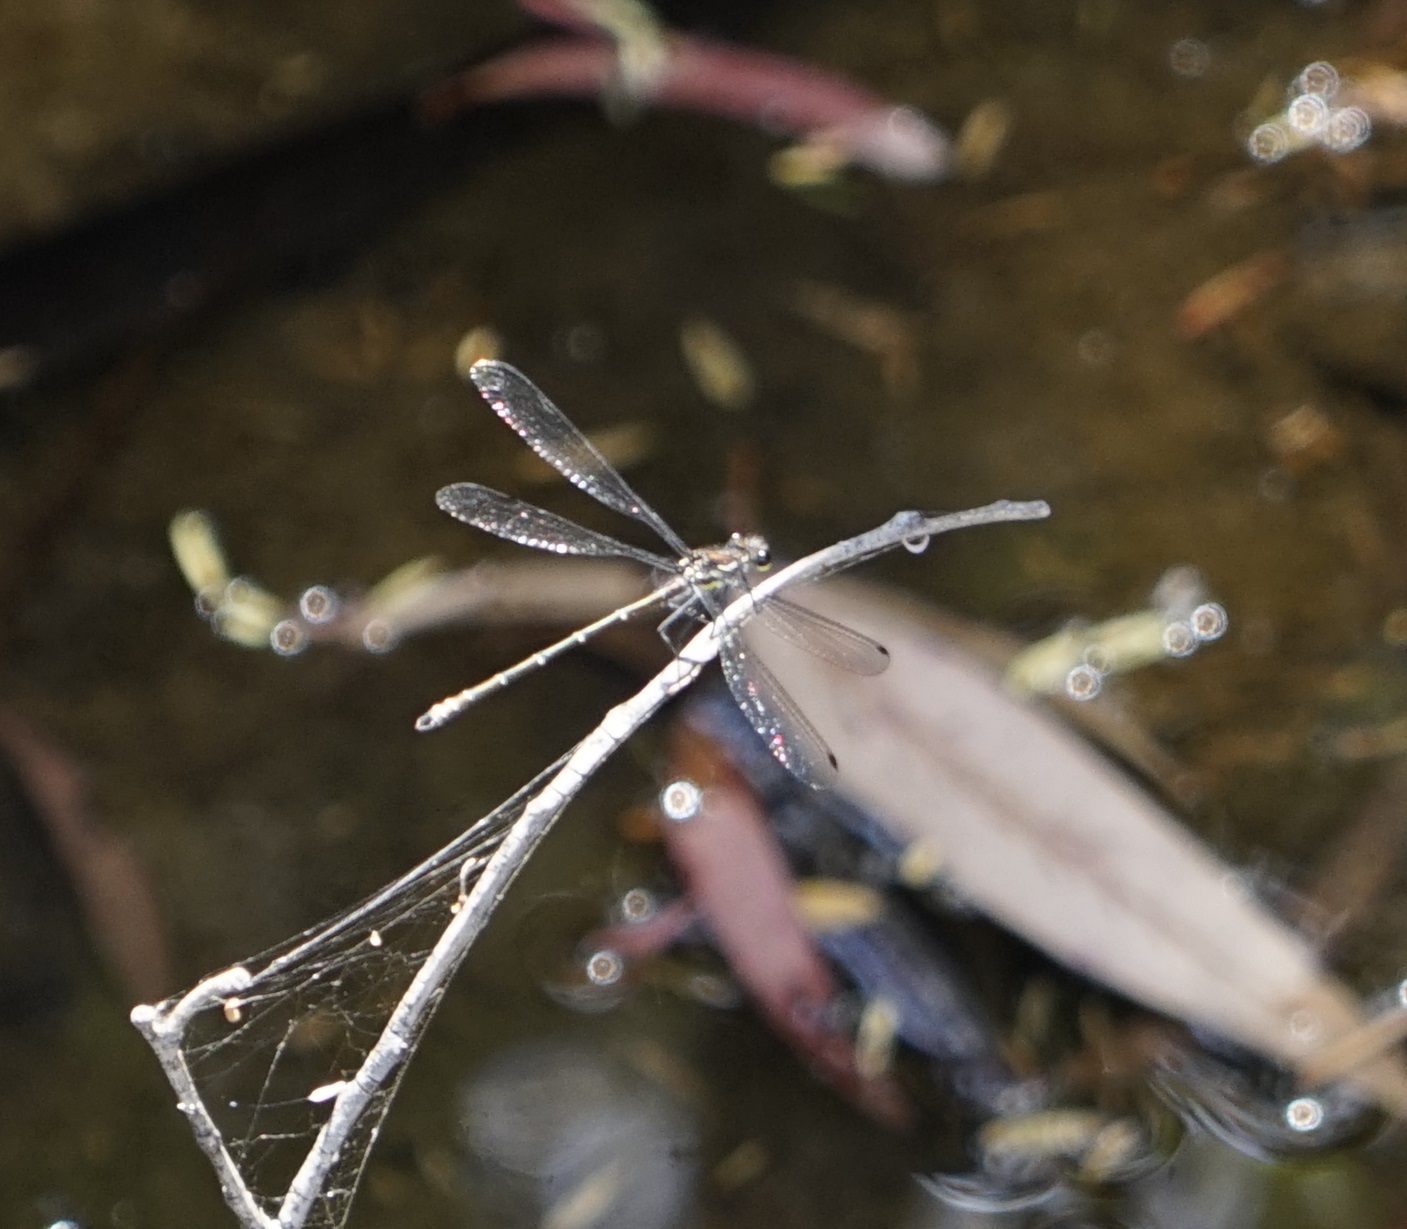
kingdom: Animalia
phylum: Arthropoda
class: Insecta
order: Odonata
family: Argiolestidae
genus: Austroargiolestes
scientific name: Austroargiolestes icteromelas
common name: Common flatwing
